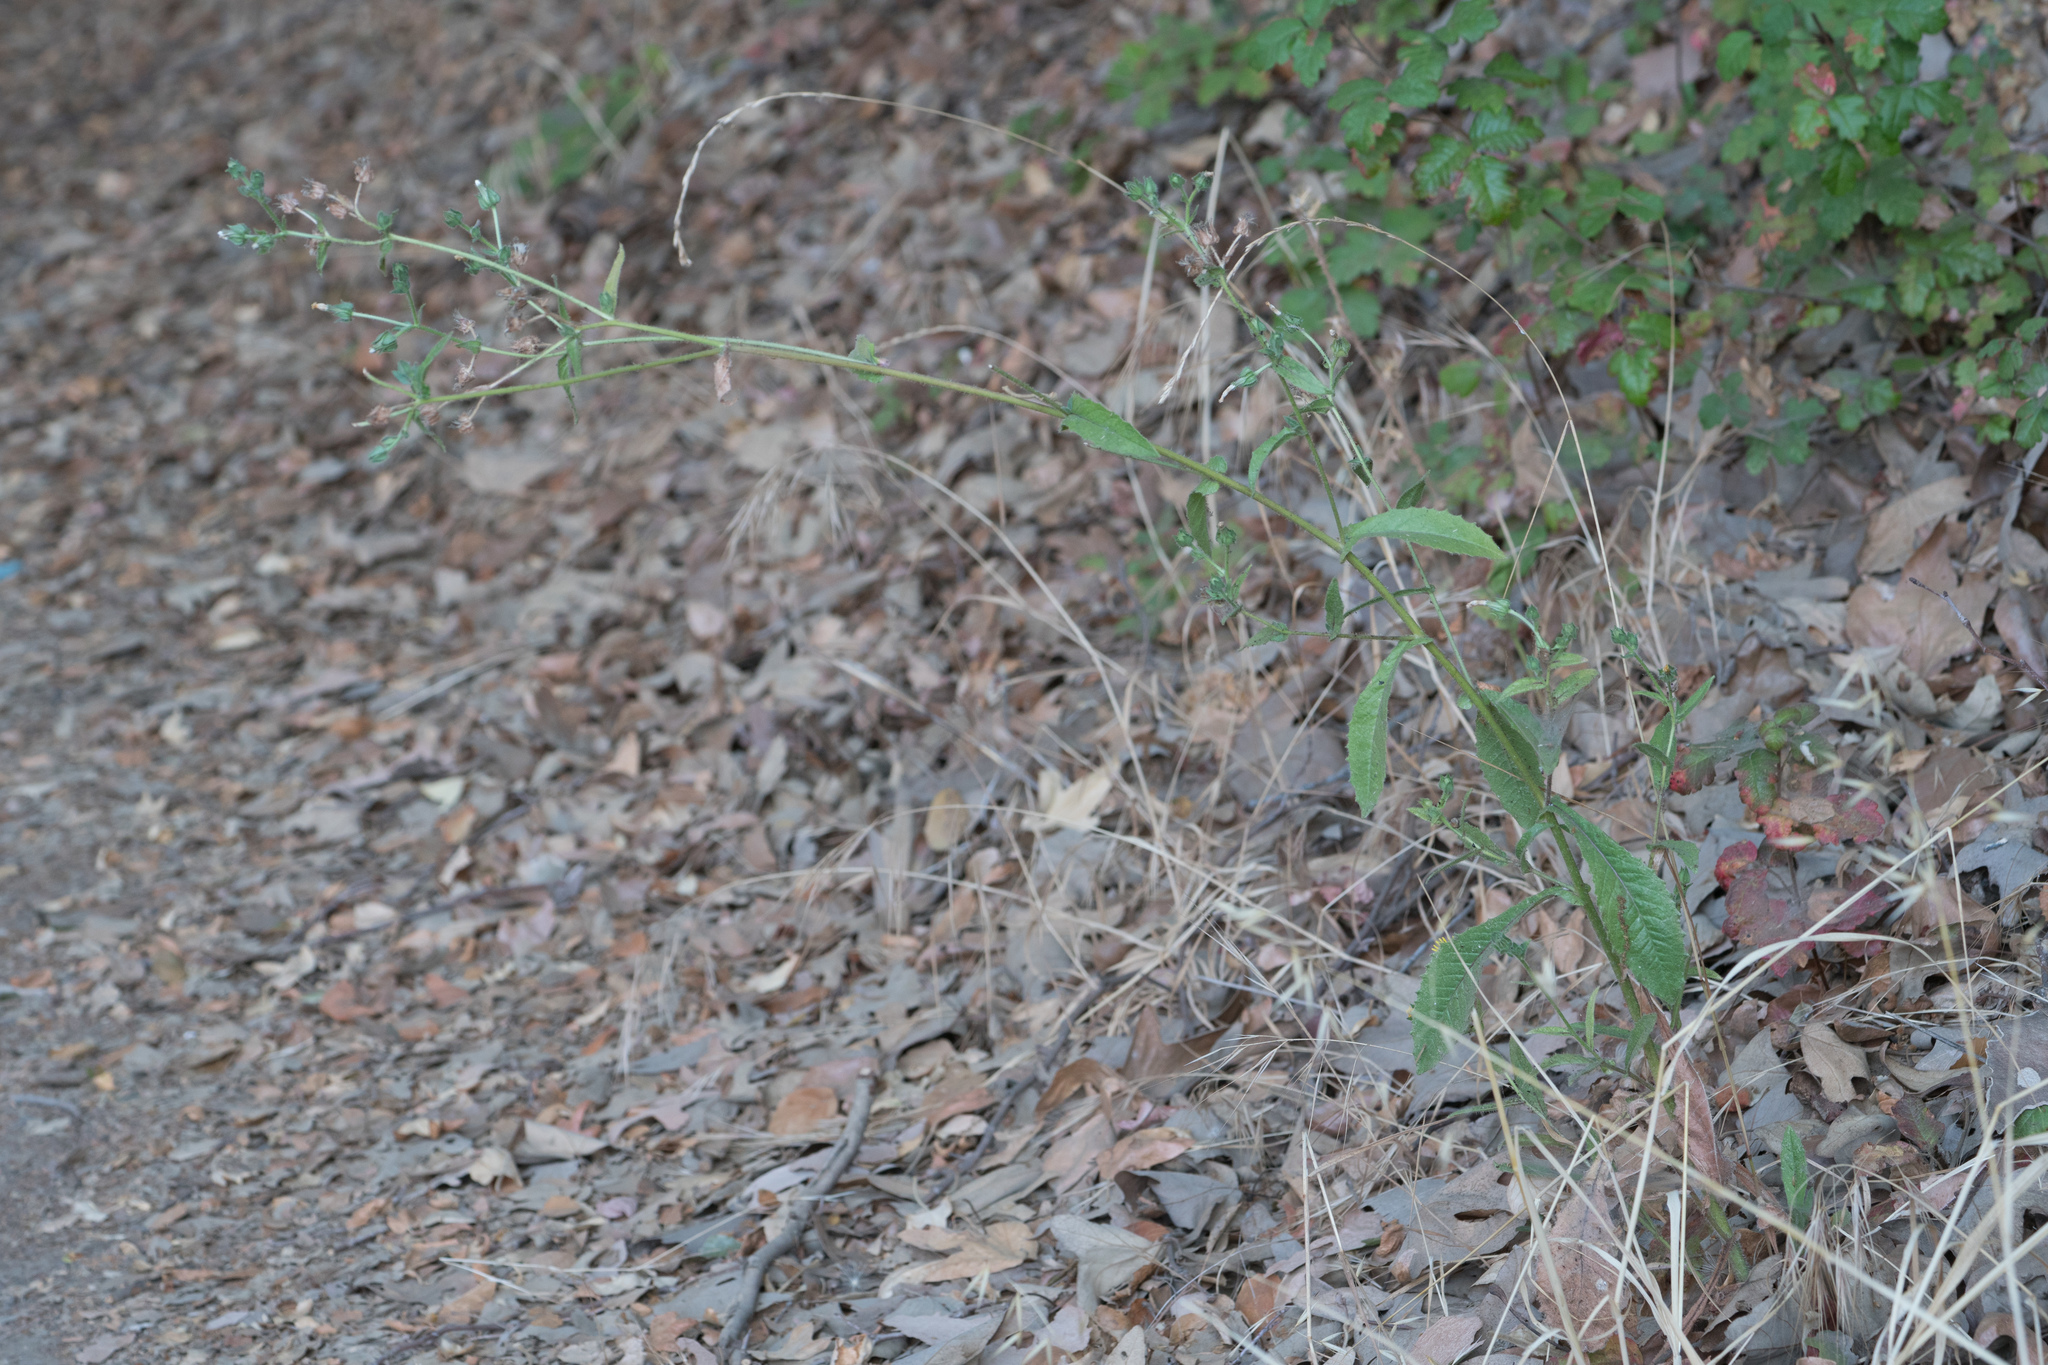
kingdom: Plantae
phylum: Tracheophyta
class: Magnoliopsida
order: Asterales
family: Asteraceae
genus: Helminthotheca
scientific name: Helminthotheca echioides
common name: Ox-tongue
